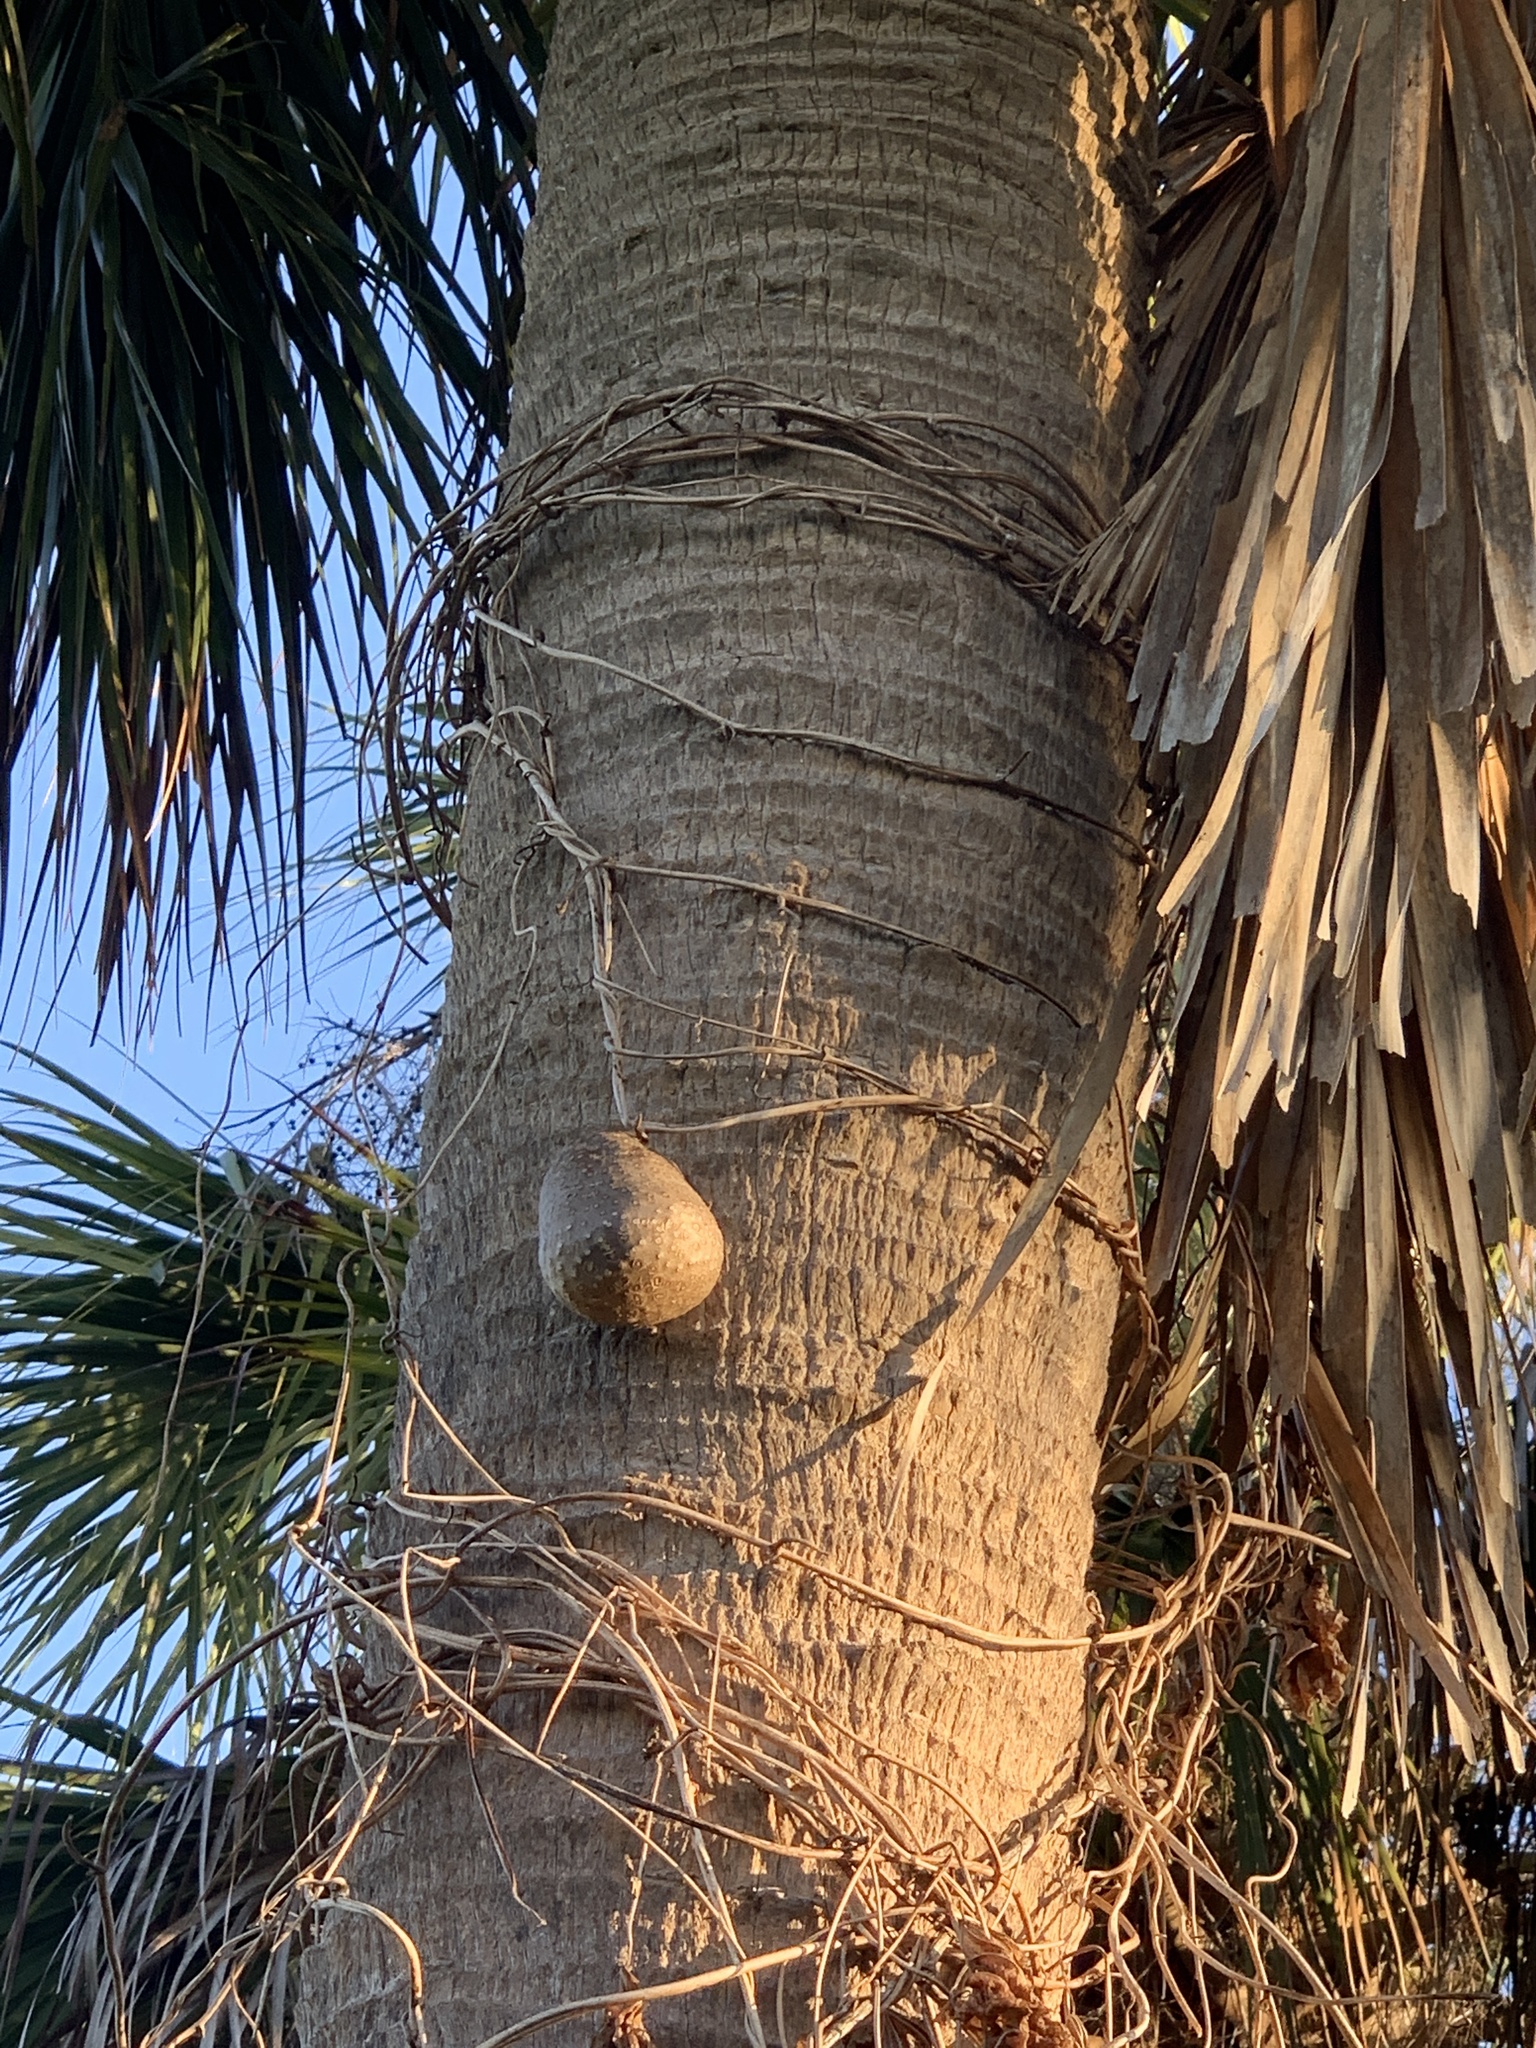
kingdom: Plantae
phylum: Tracheophyta
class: Liliopsida
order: Dioscoreales
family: Dioscoreaceae
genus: Dioscorea
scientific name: Dioscorea bulbifera
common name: Air yam
